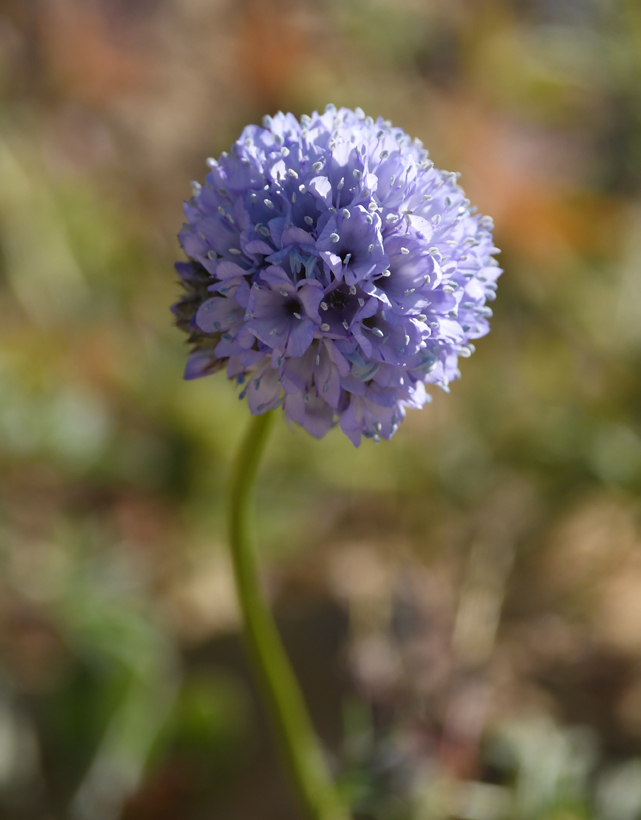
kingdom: Plantae
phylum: Tracheophyta
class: Magnoliopsida
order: Ericales
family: Polemoniaceae
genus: Gilia
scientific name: Gilia capitata
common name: Bluehead gilia
